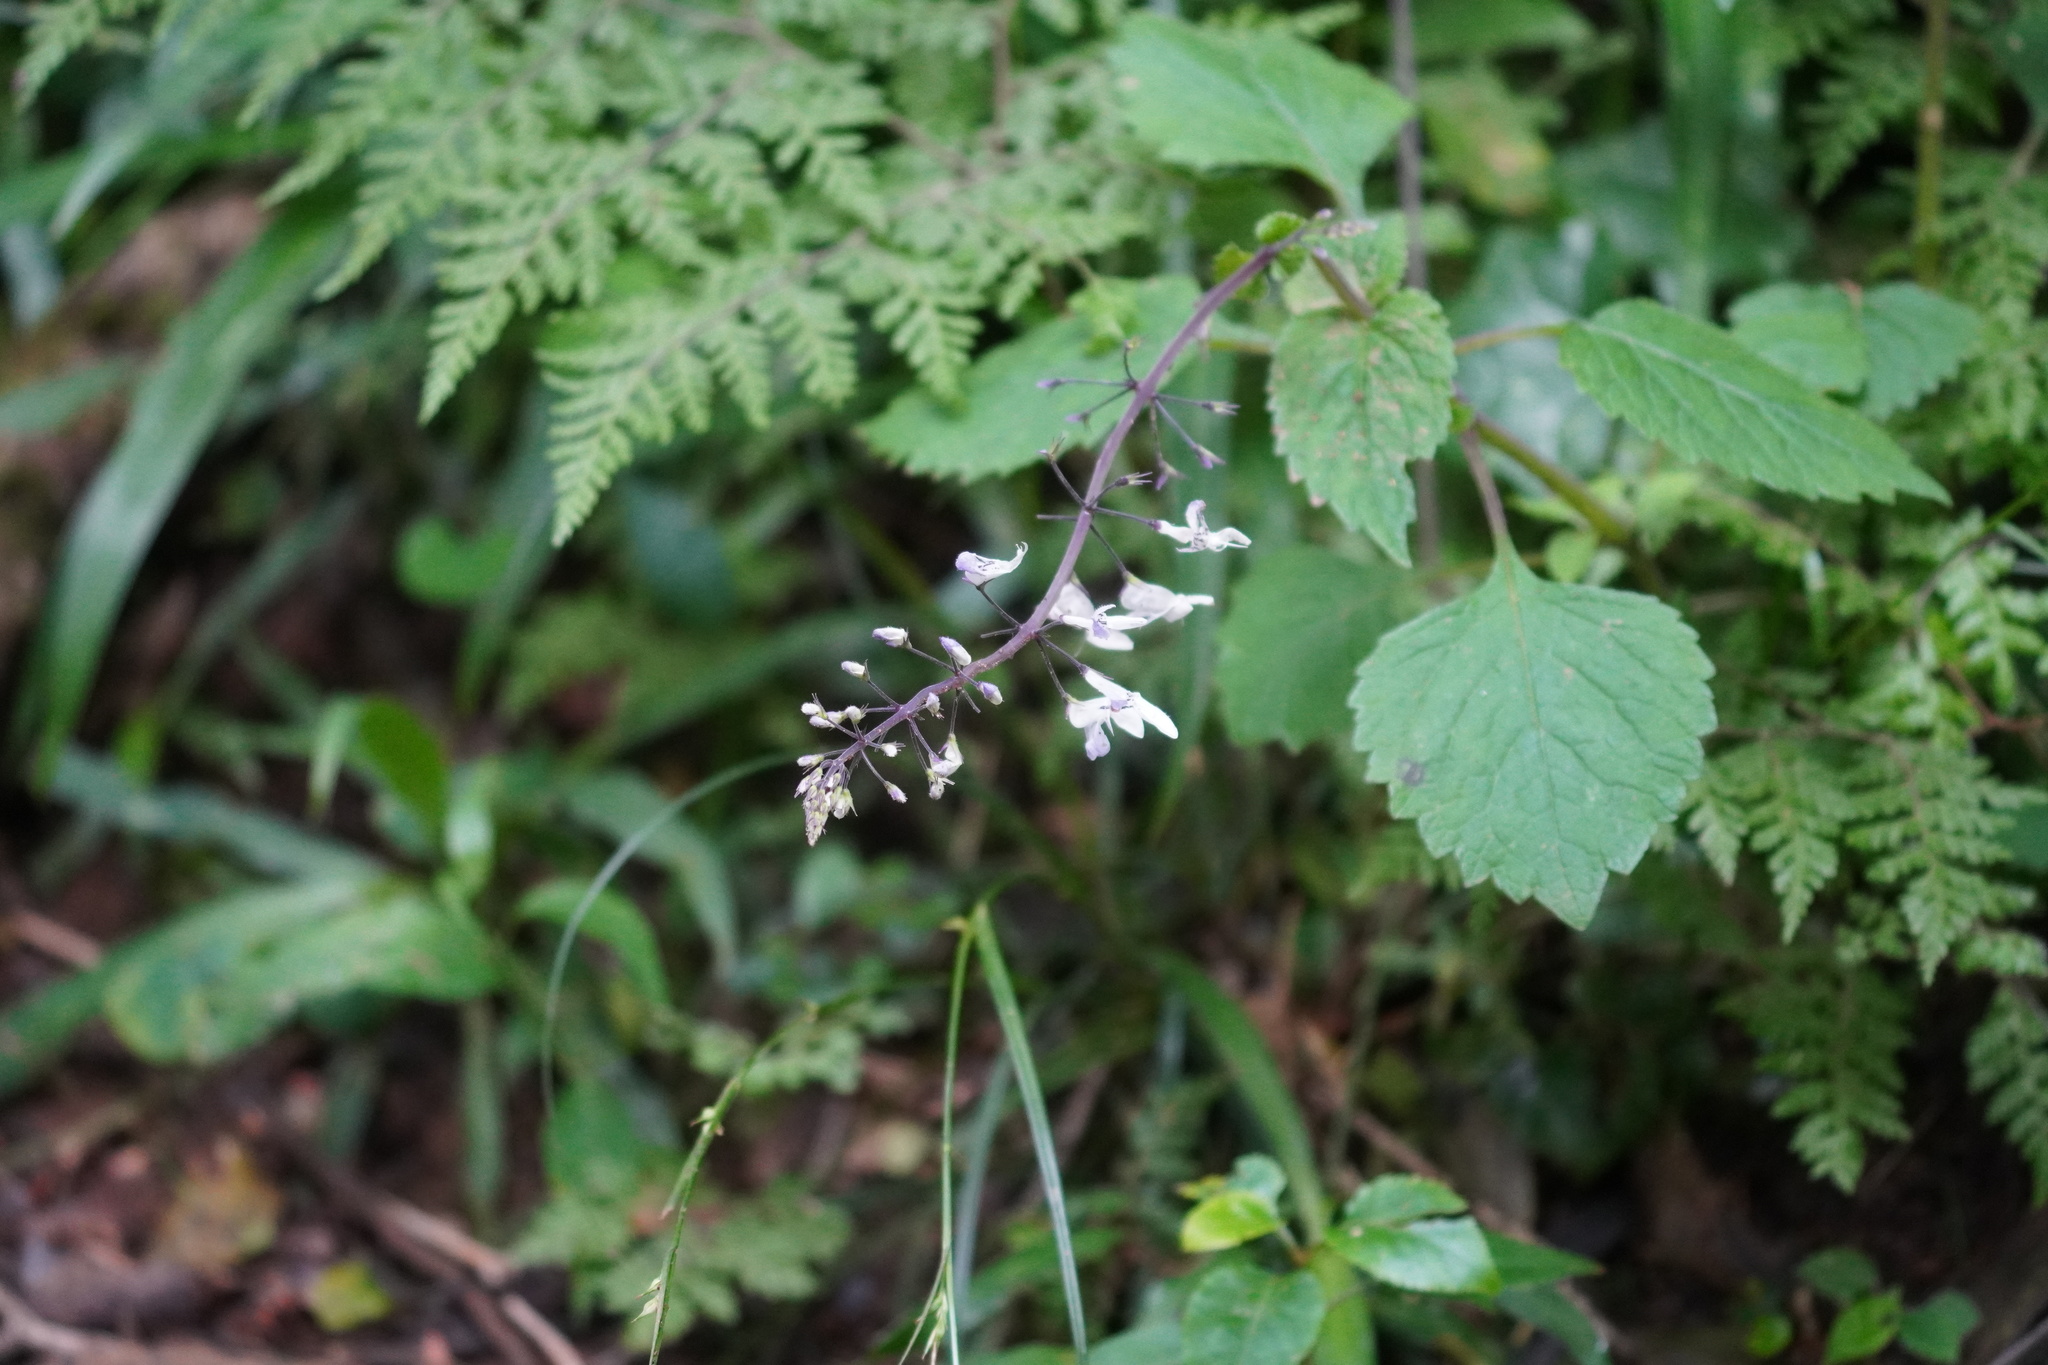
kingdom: Plantae
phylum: Tracheophyta
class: Magnoliopsida
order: Lamiales
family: Lamiaceae
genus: Plectranthus
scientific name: Plectranthus fruticosus
